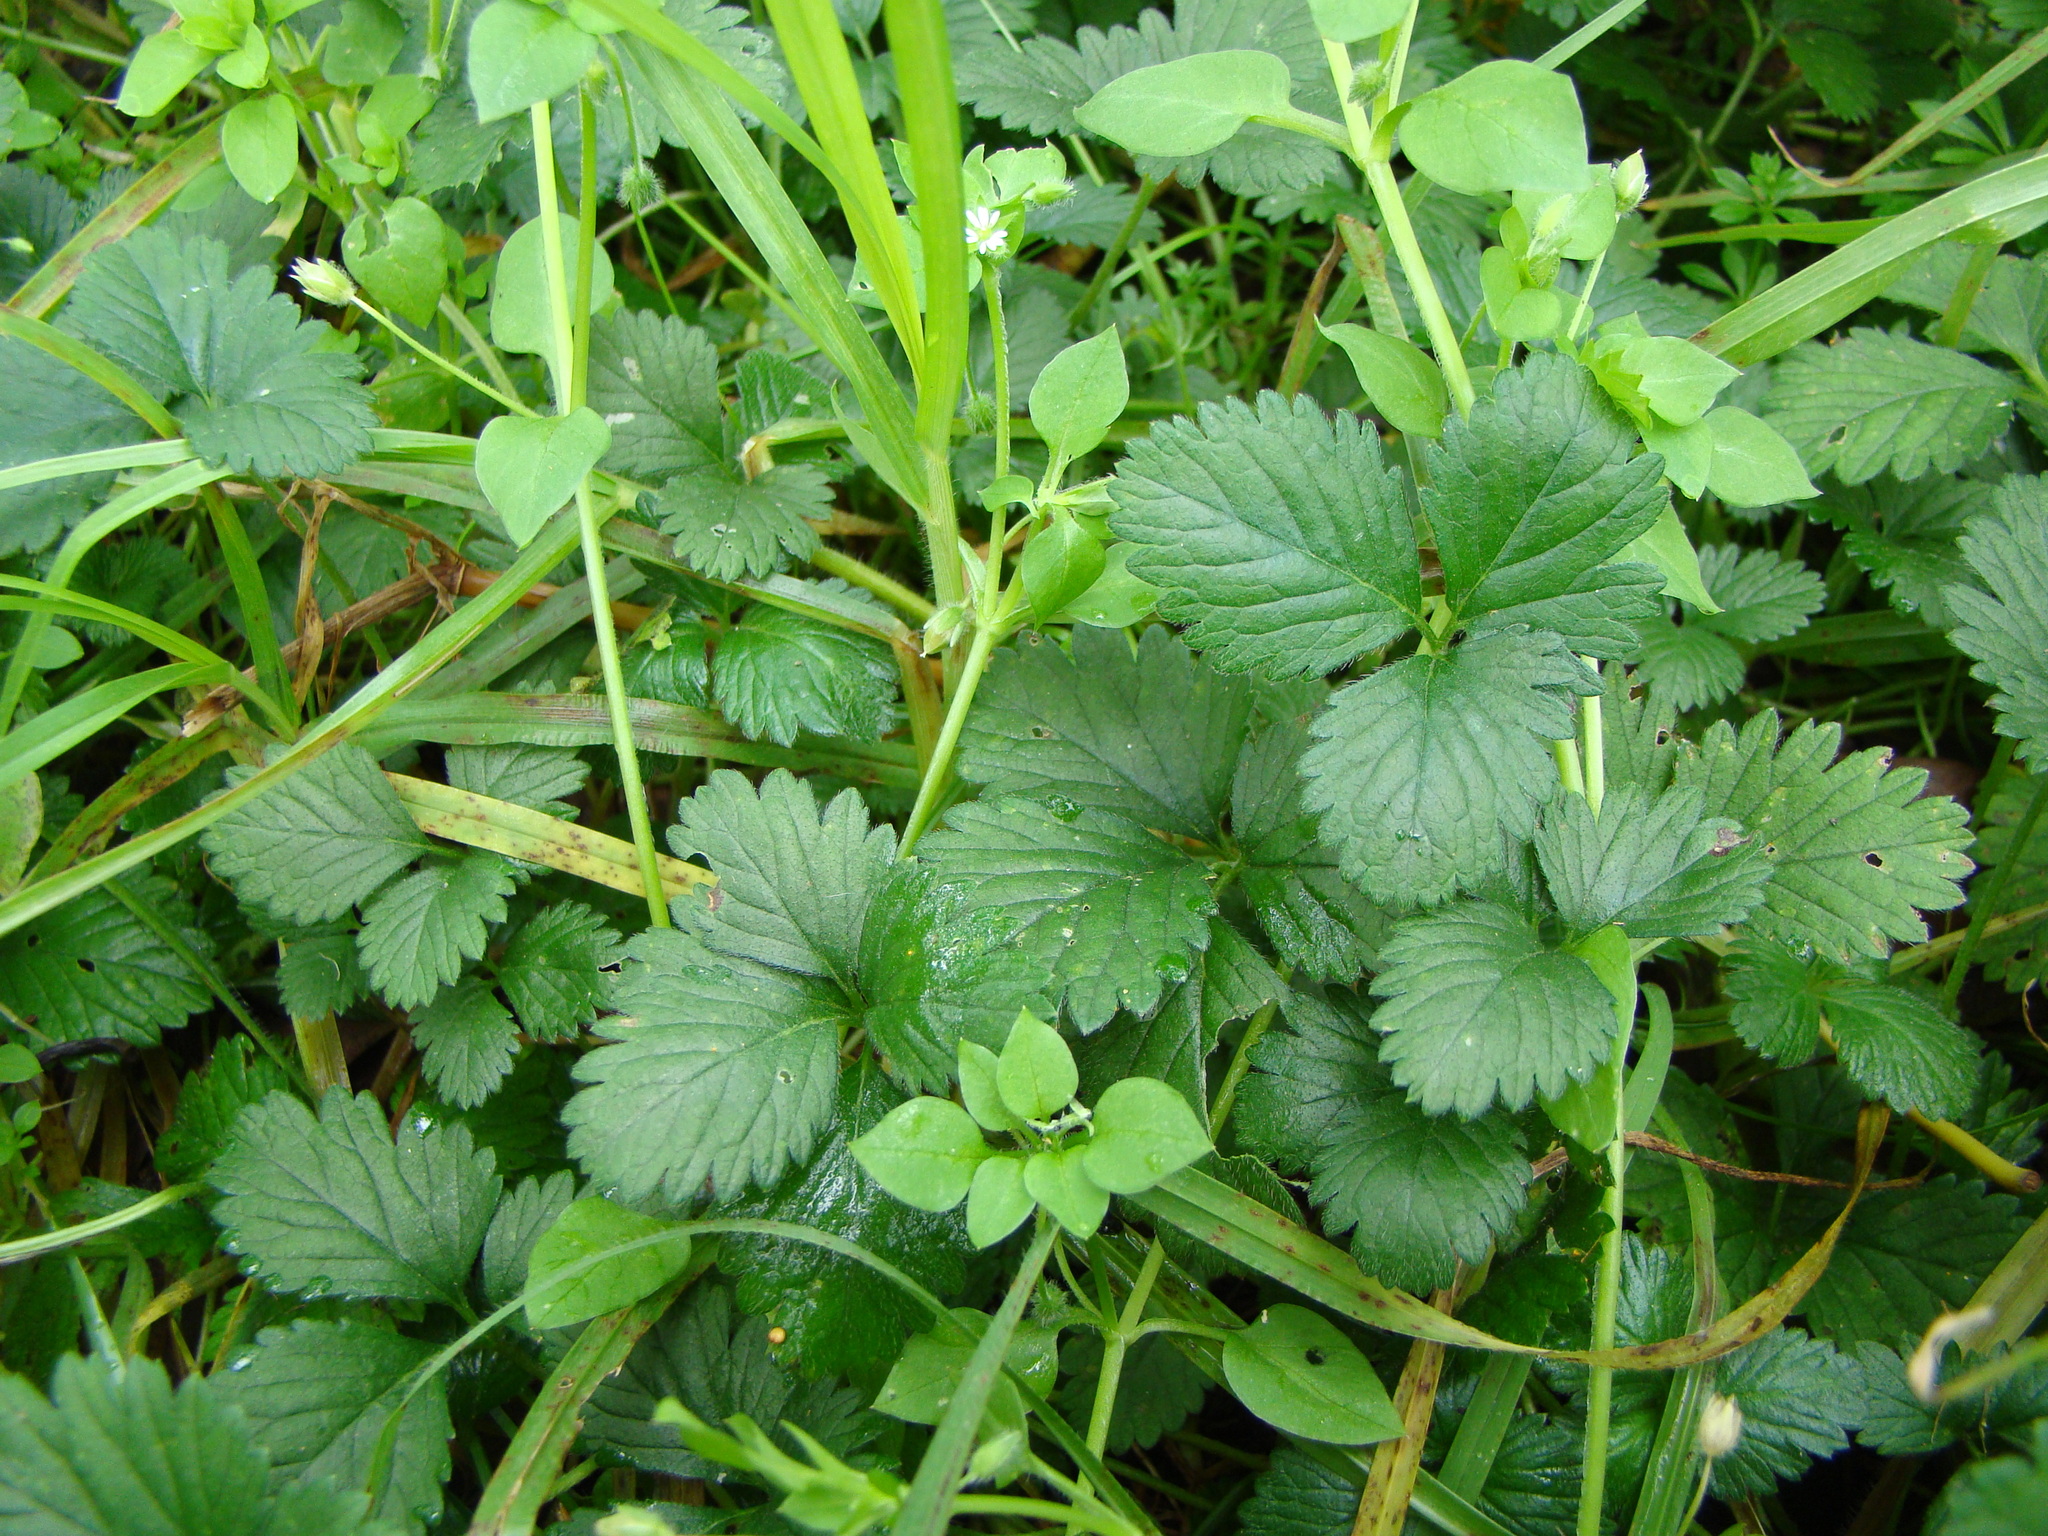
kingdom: Plantae
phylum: Tracheophyta
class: Magnoliopsida
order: Rosales
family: Rosaceae
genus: Potentilla
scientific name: Potentilla indica
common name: Yellow-flowered strawberry
